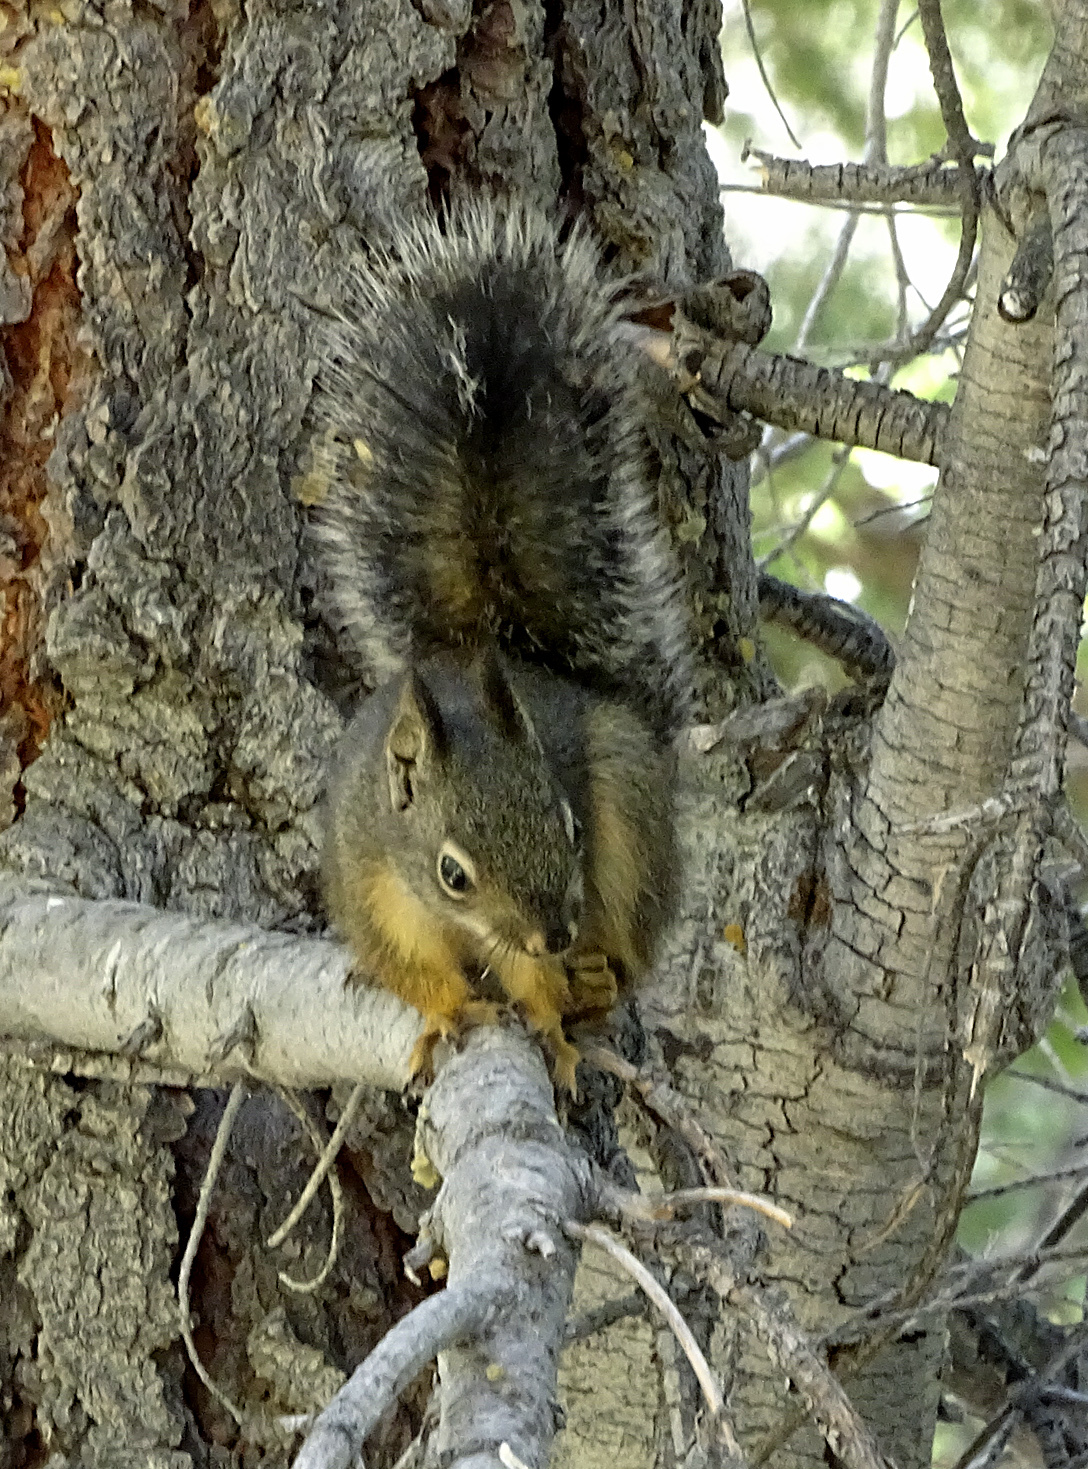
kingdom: Animalia
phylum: Chordata
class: Mammalia
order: Rodentia
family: Sciuridae
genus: Tamiasciurus
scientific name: Tamiasciurus douglasii
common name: Douglas's squirrel
